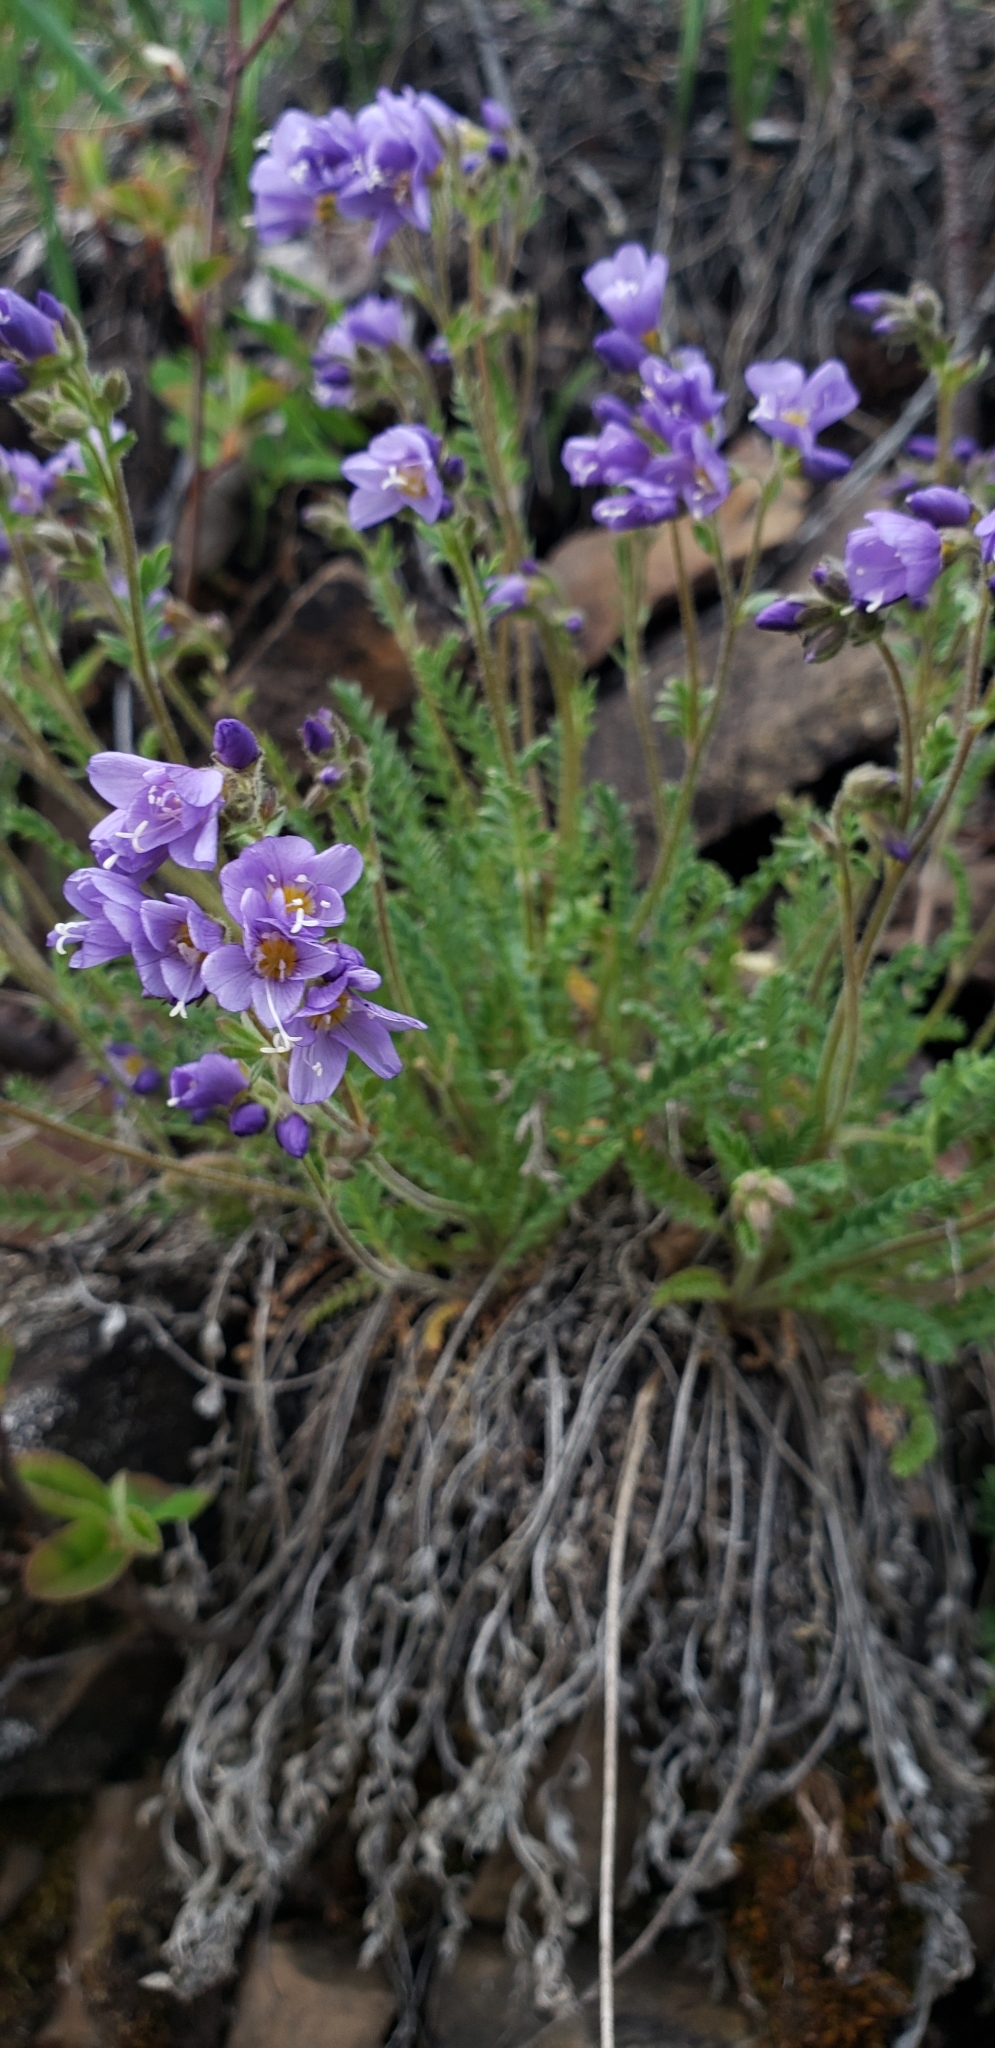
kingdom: Plantae
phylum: Tracheophyta
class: Magnoliopsida
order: Ericales
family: Polemoniaceae
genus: Polemonium
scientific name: Polemonium pulcherrimum
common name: Short jacob's-ladder
